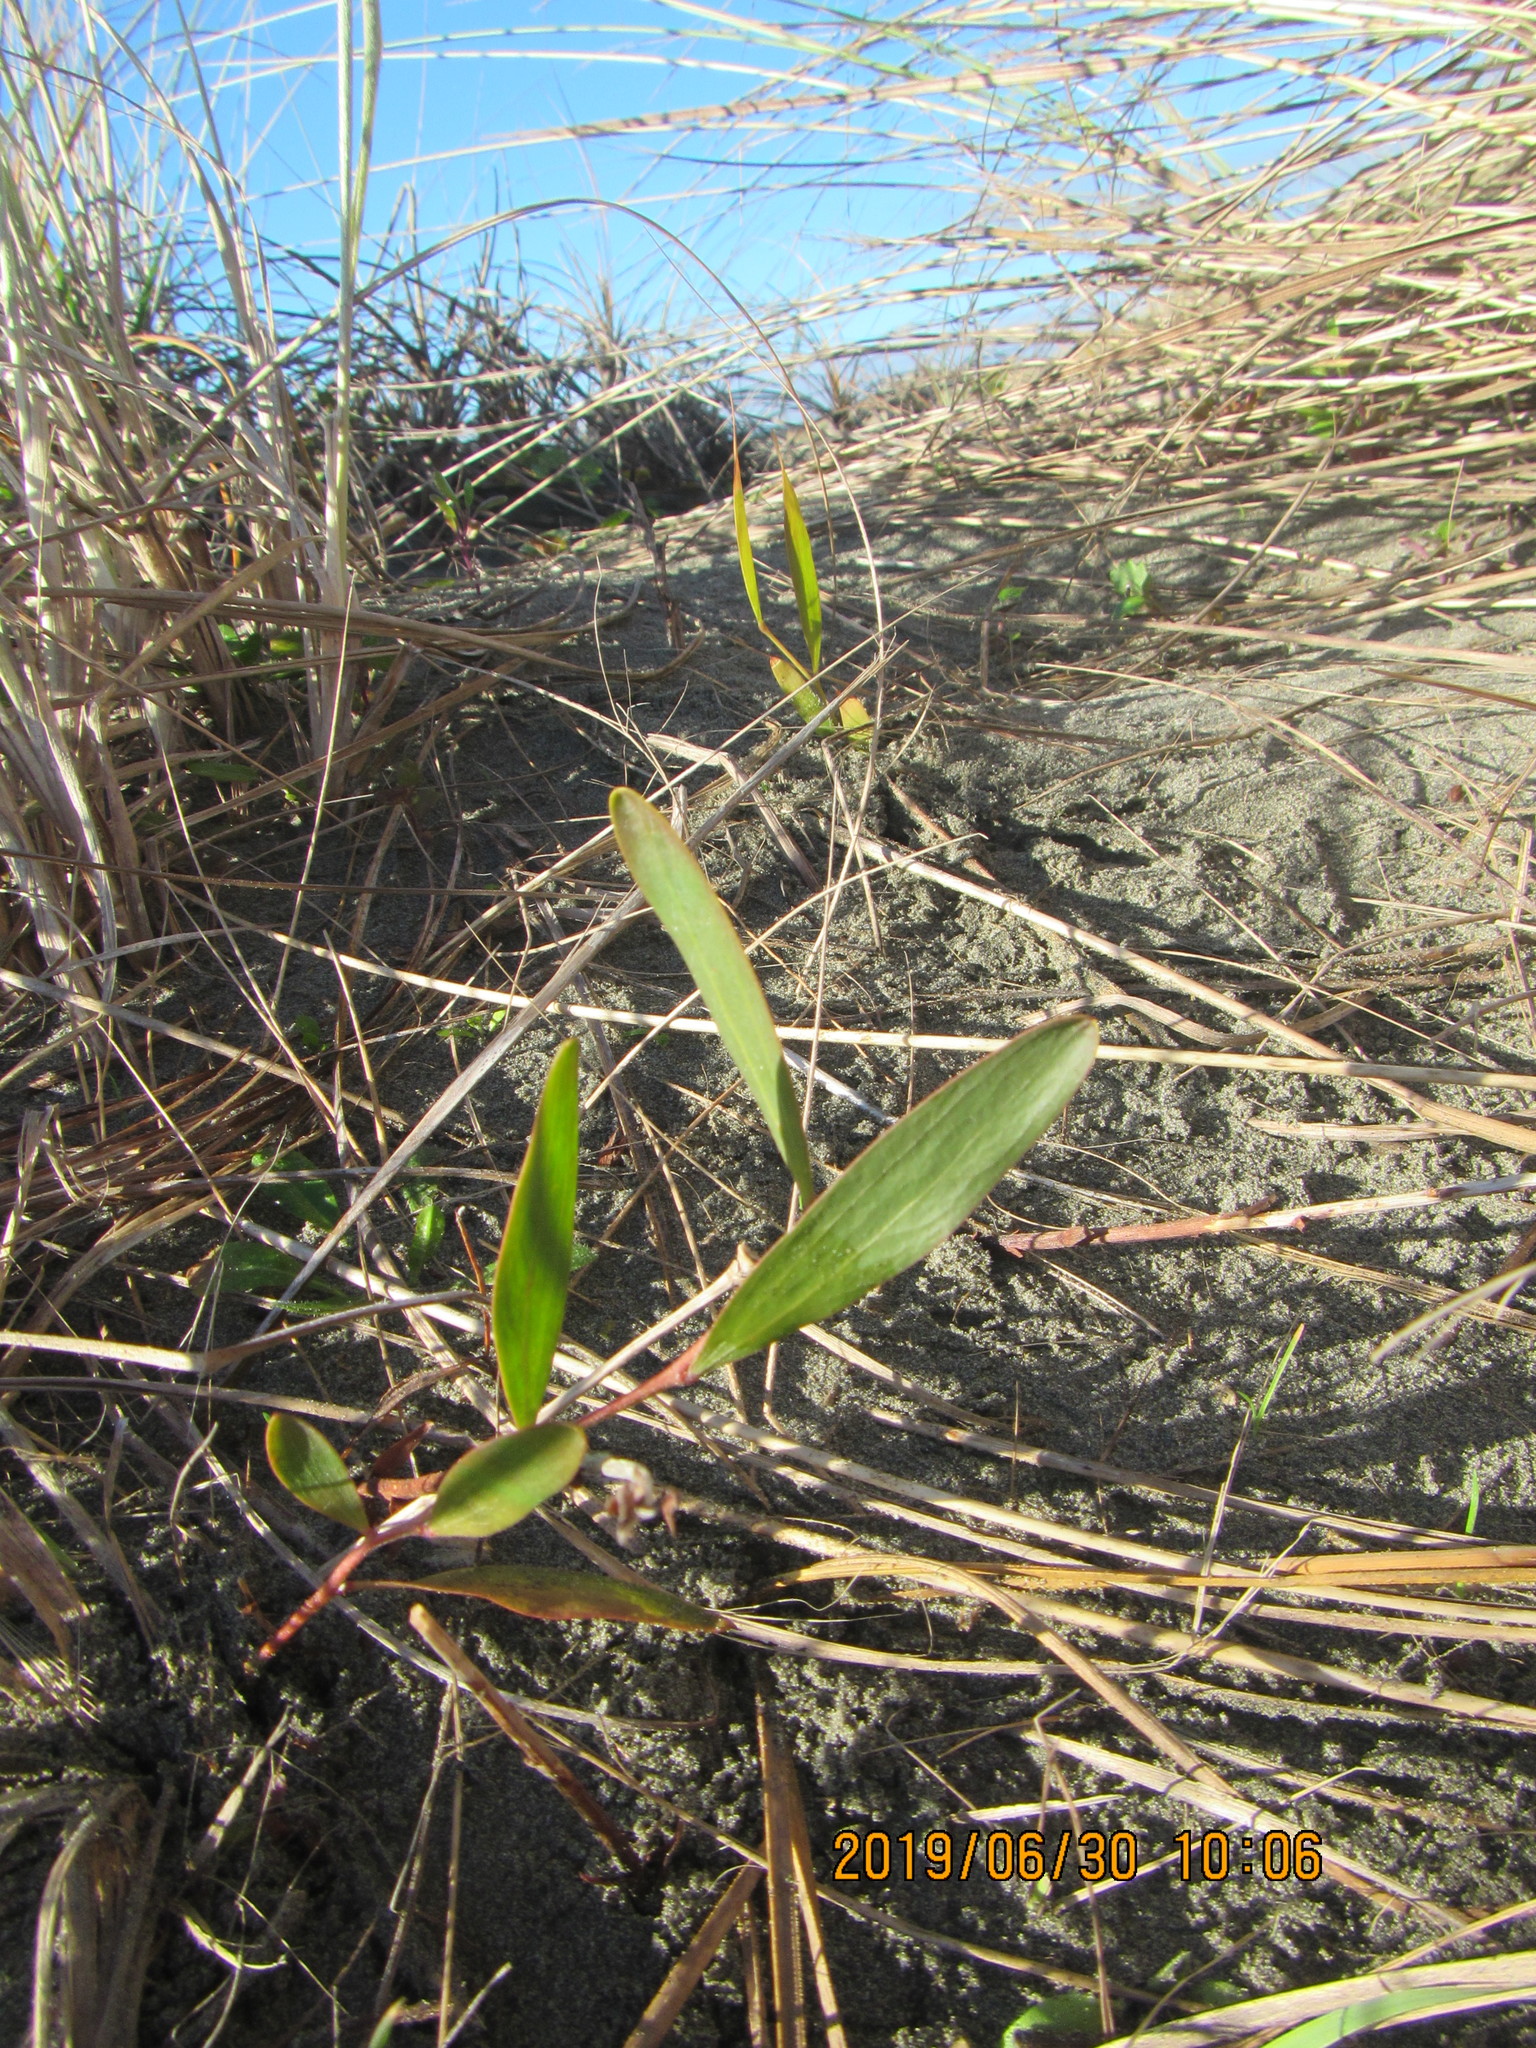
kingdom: Plantae
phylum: Tracheophyta
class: Magnoliopsida
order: Fabales
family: Fabaceae
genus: Acacia
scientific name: Acacia longifolia
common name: Sydney golden wattle
